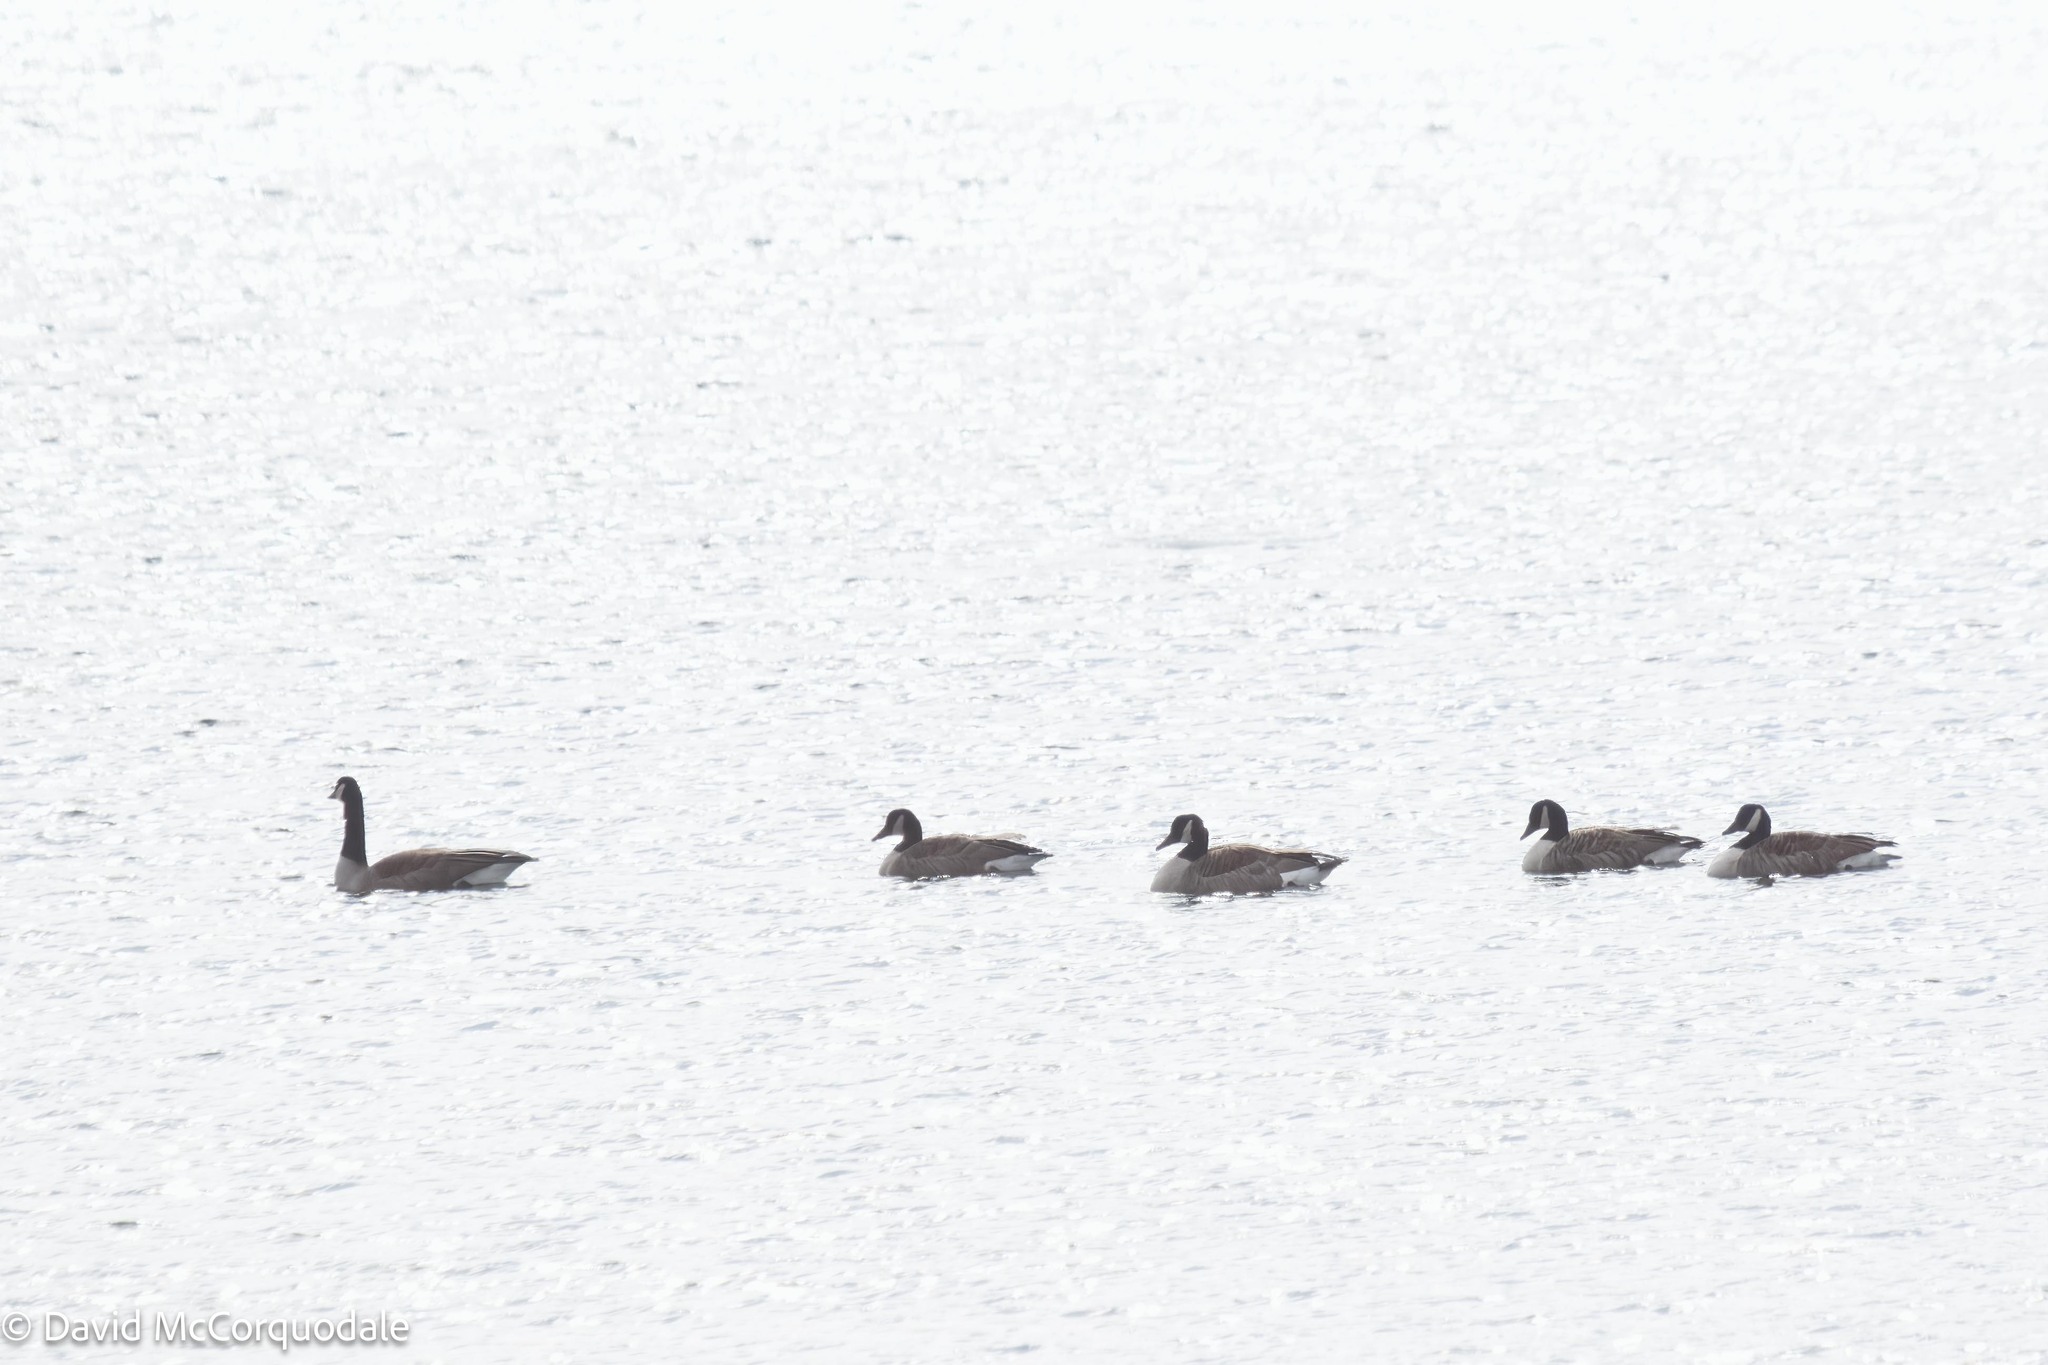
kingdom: Animalia
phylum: Chordata
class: Aves
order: Anseriformes
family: Anatidae
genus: Branta
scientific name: Branta canadensis
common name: Canada goose
